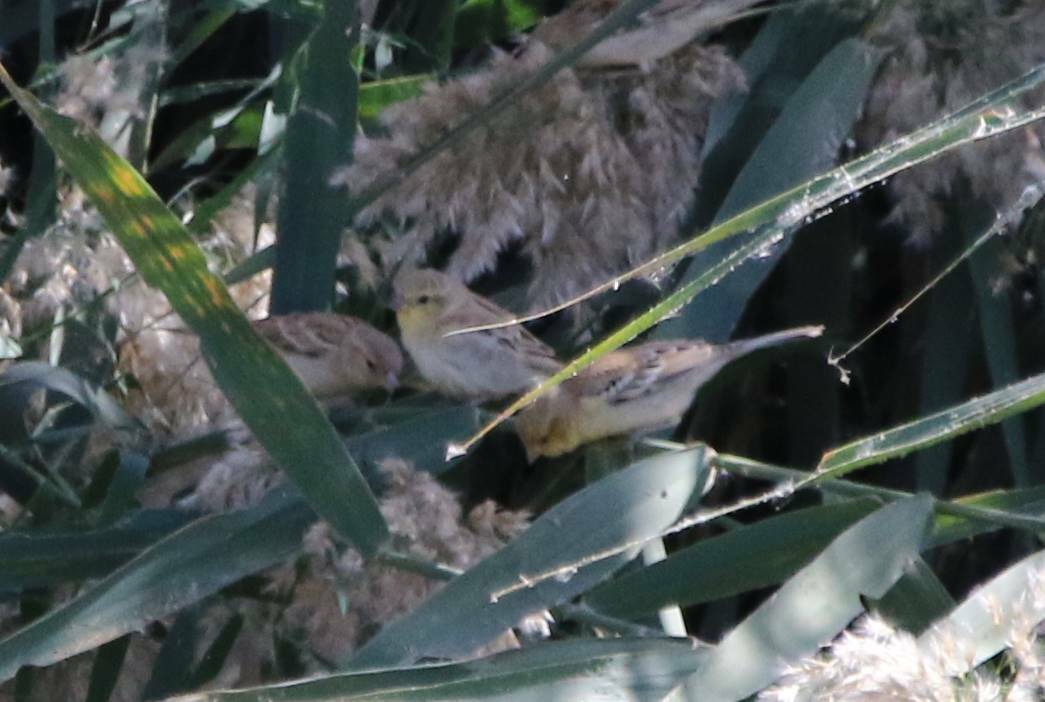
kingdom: Animalia
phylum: Chordata
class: Aves
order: Passeriformes
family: Passeridae
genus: Passer
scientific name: Passer luteus
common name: Sudan golden sparrow
